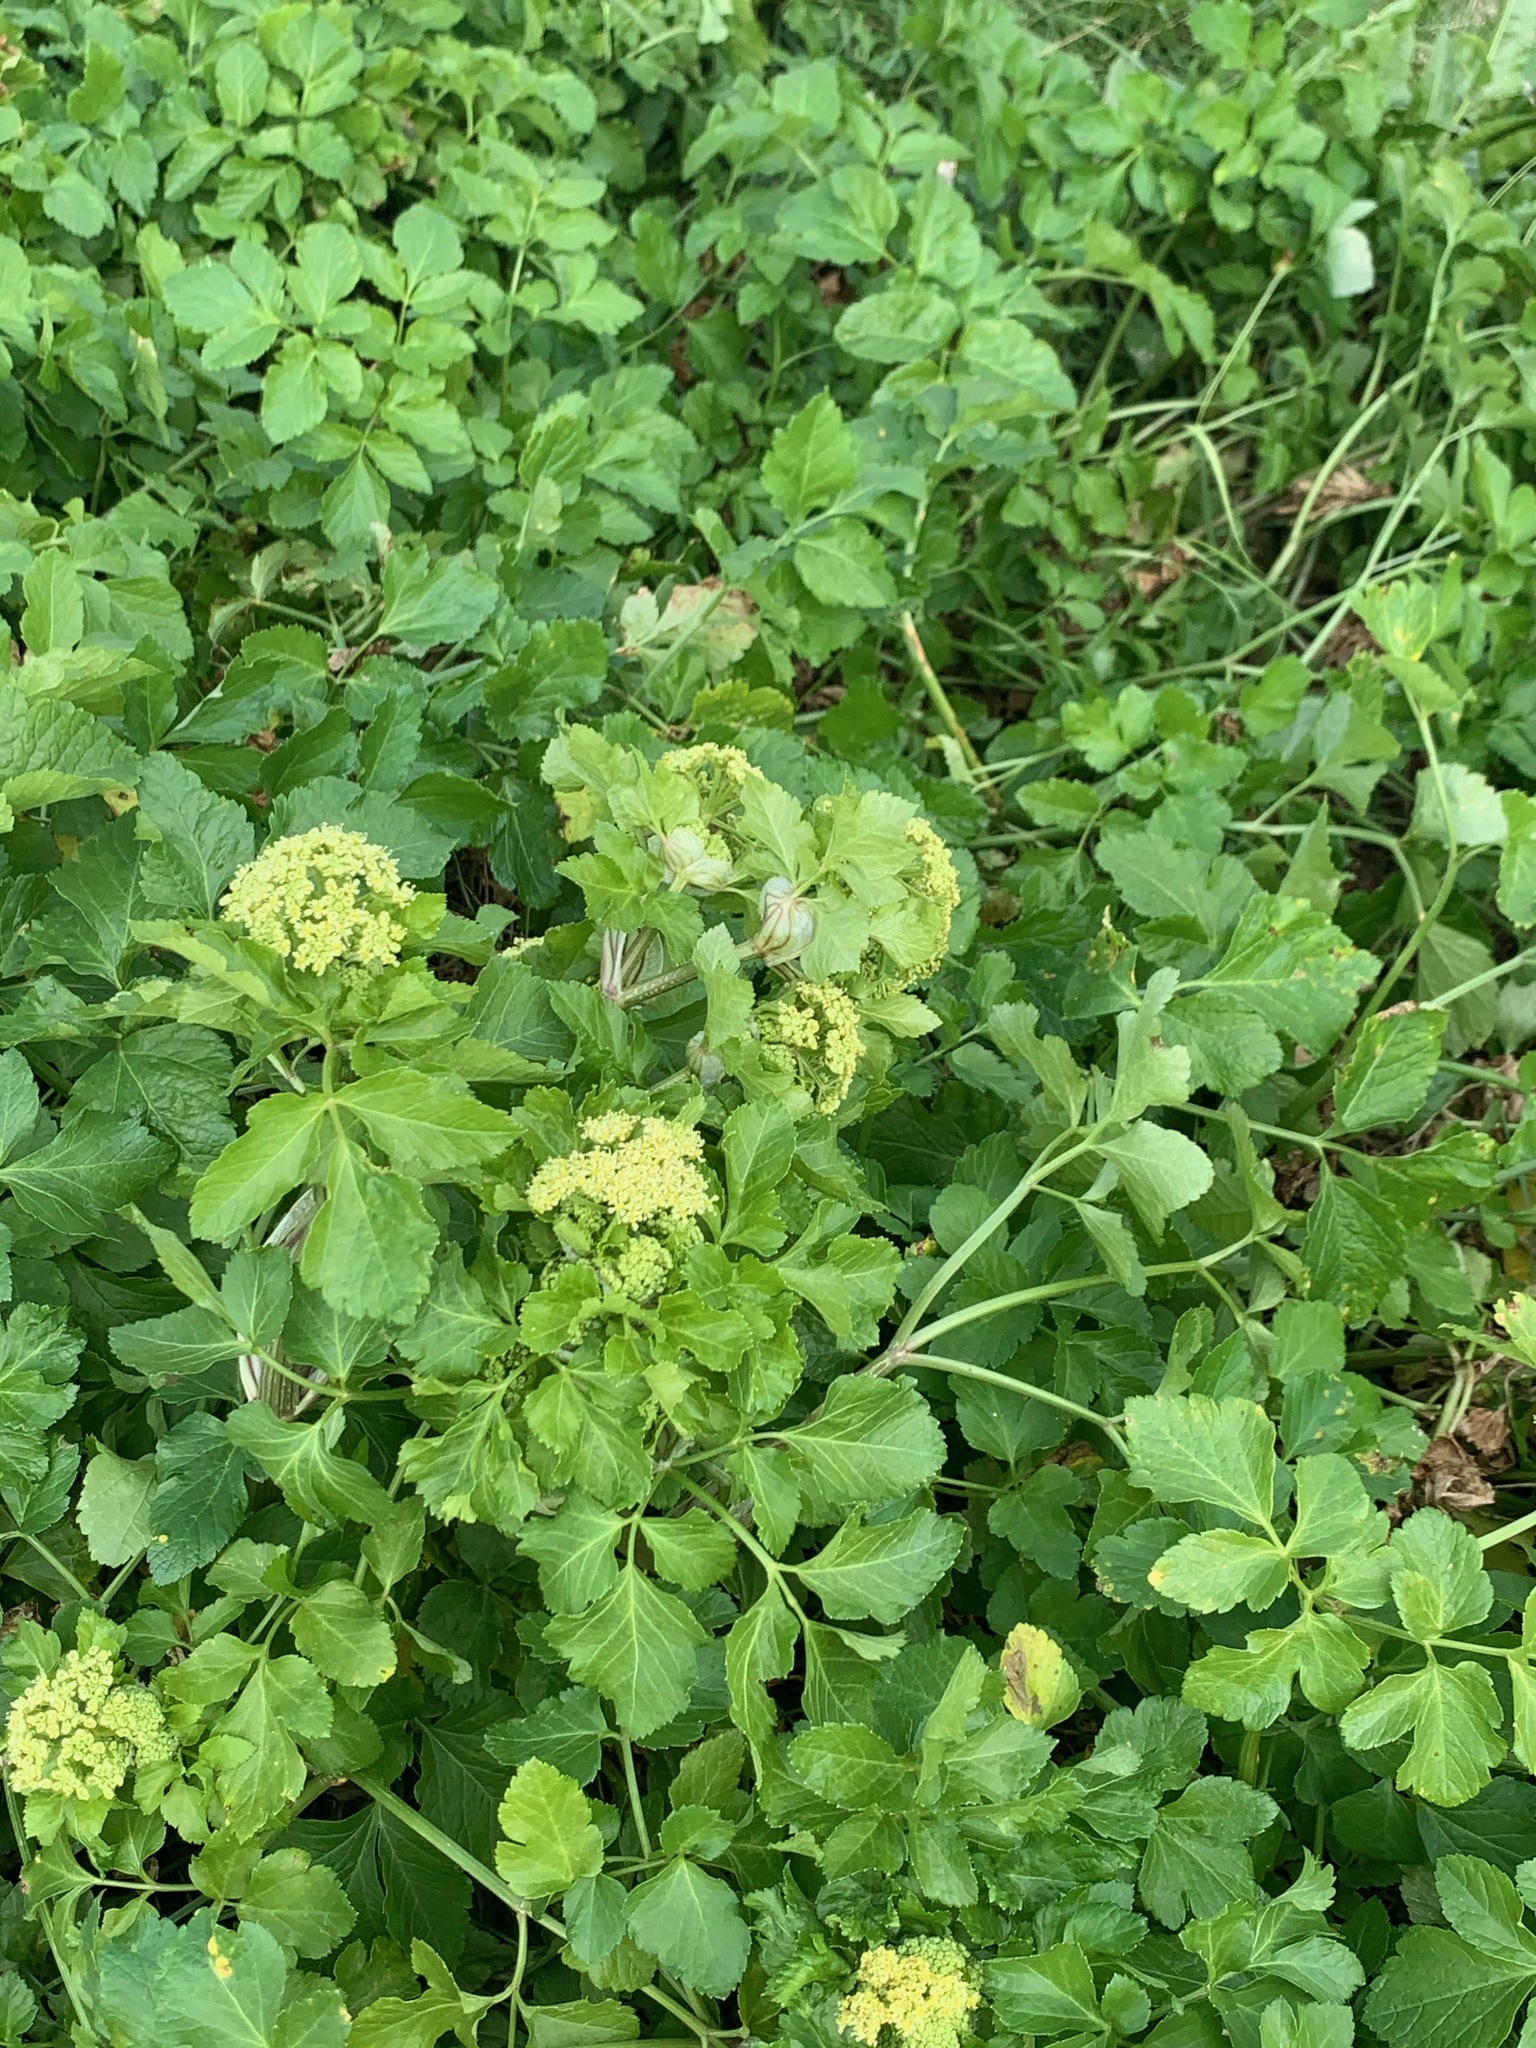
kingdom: Plantae
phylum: Tracheophyta
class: Magnoliopsida
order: Apiales
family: Apiaceae
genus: Smyrnium
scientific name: Smyrnium olusatrum
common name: Alexanders
